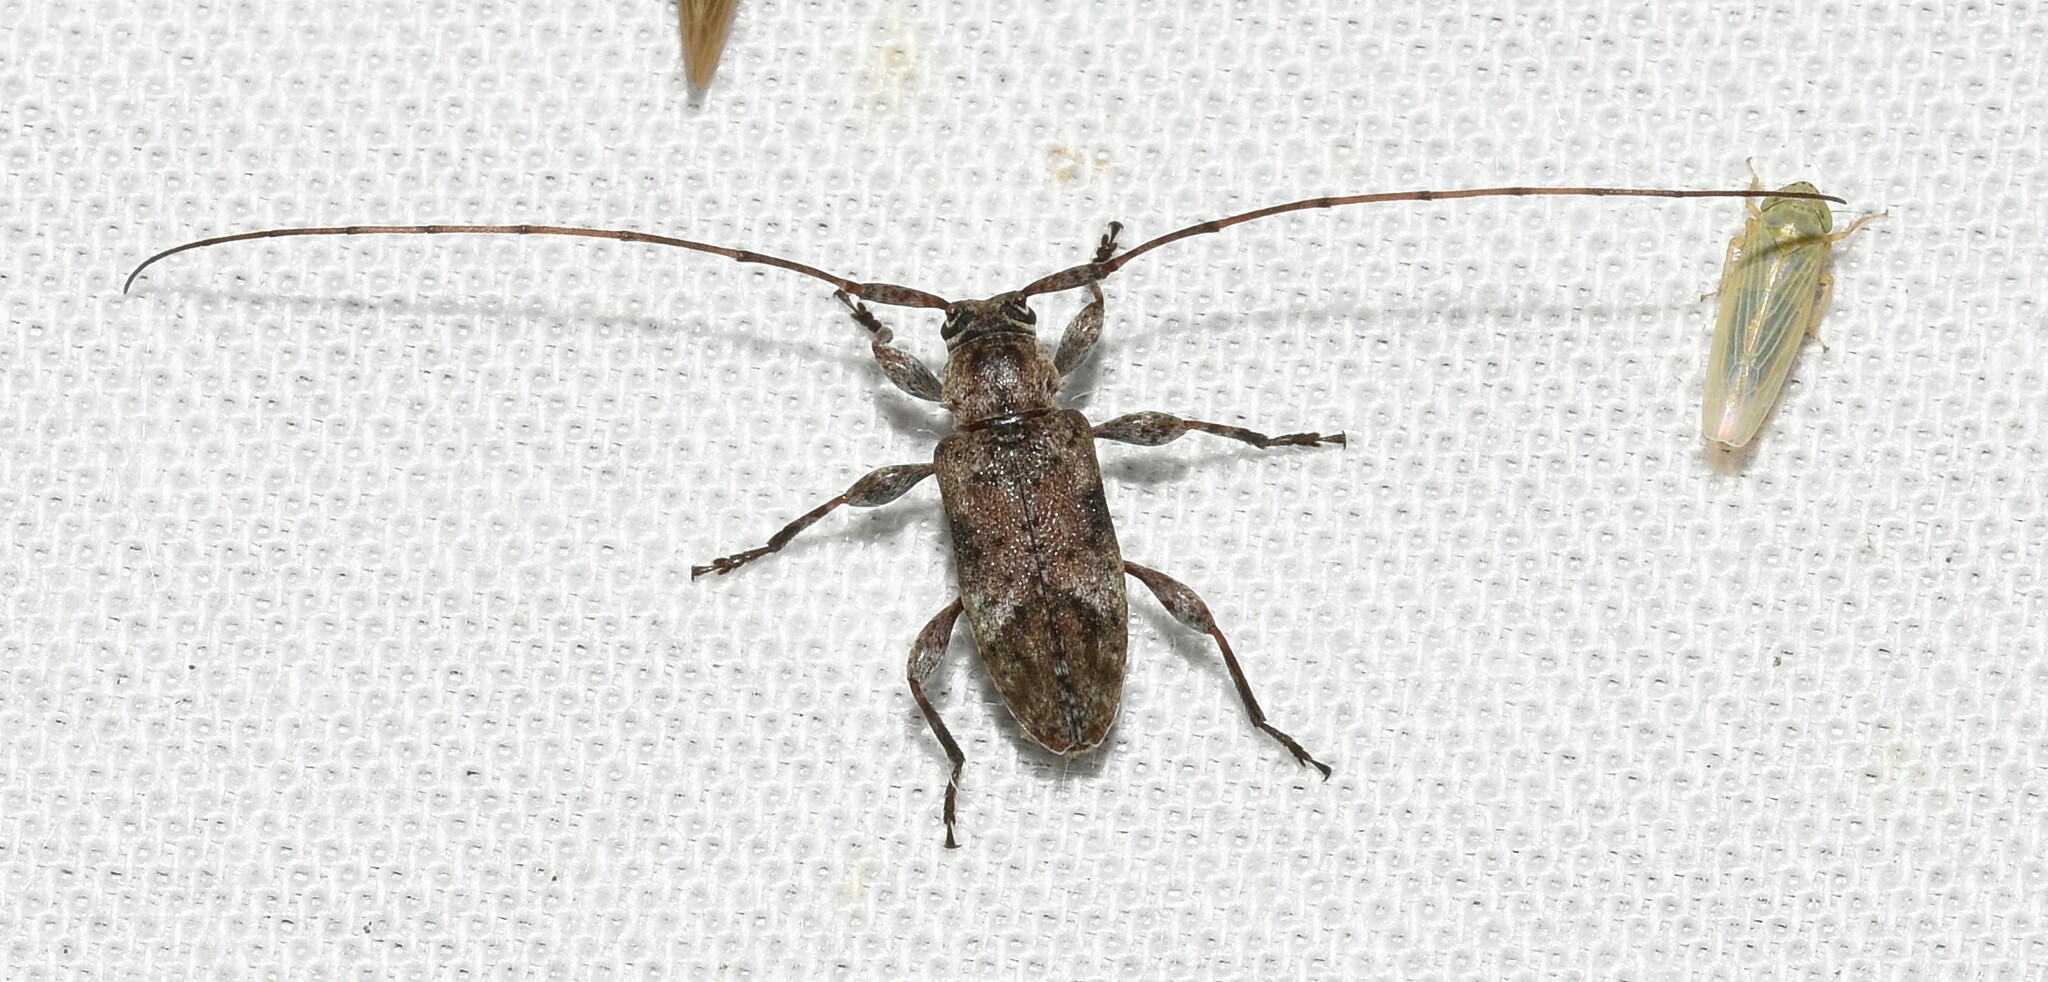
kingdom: Animalia
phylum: Arthropoda
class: Insecta
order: Coleoptera
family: Cerambycidae
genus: Sternidius
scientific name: Sternidius alpha
